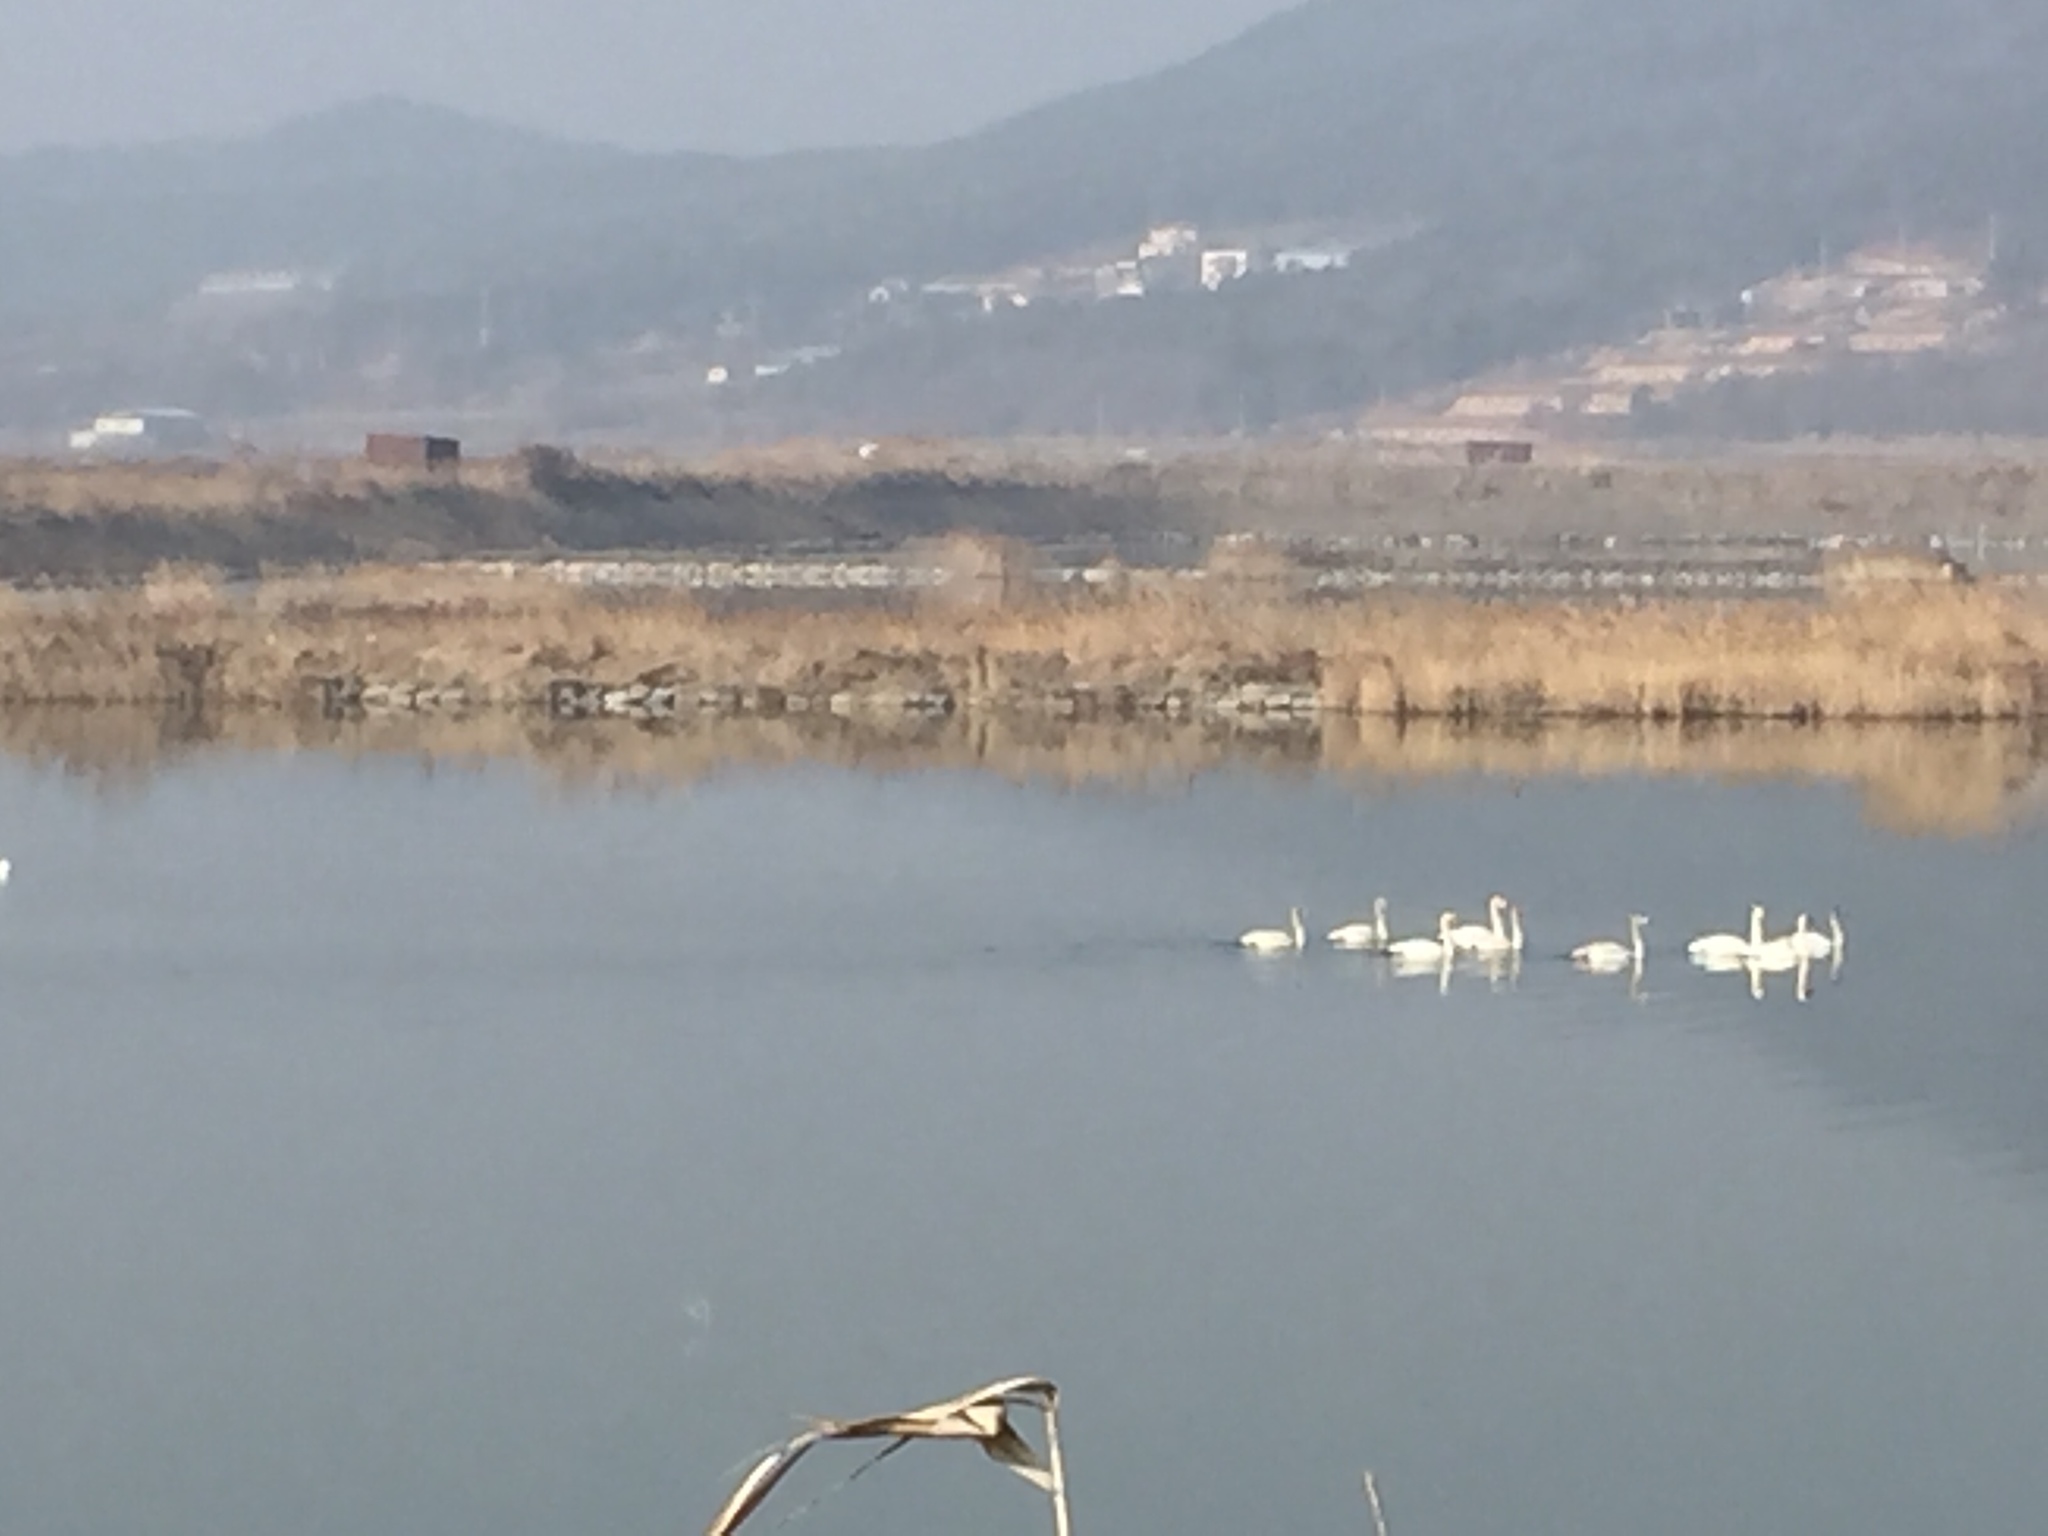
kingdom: Animalia
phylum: Chordata
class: Aves
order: Anseriformes
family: Anatidae
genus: Cygnus
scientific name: Cygnus cygnus
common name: Whooper swan
